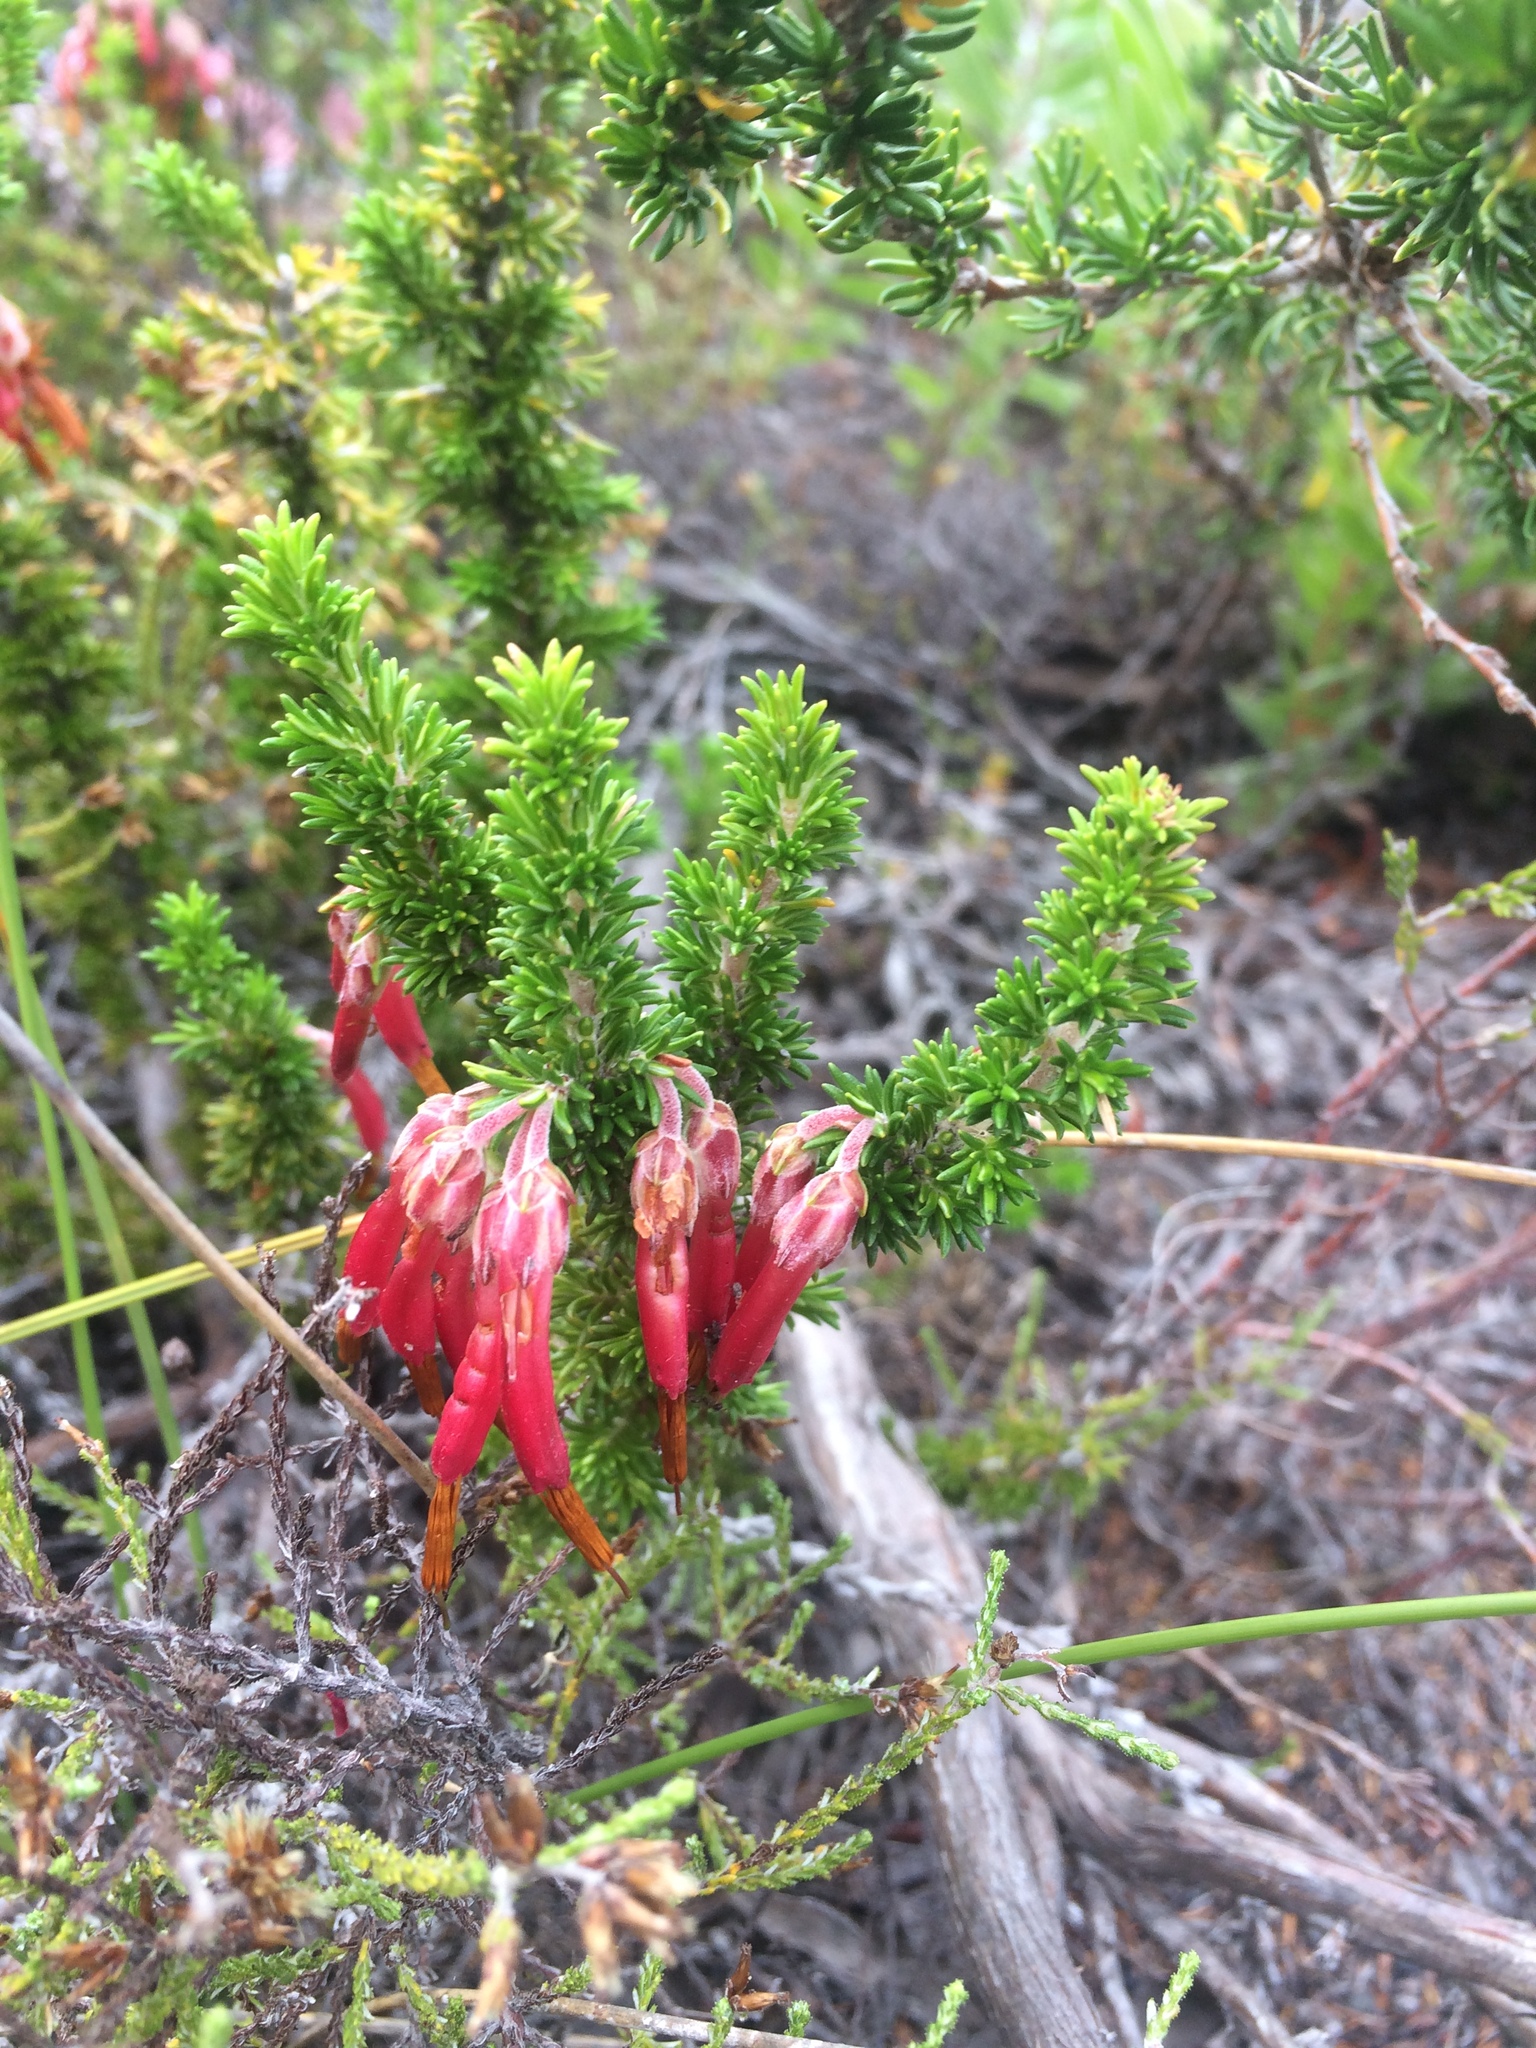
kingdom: Plantae
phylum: Tracheophyta
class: Magnoliopsida
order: Ericales
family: Ericaceae
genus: Erica
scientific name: Erica coccinea
